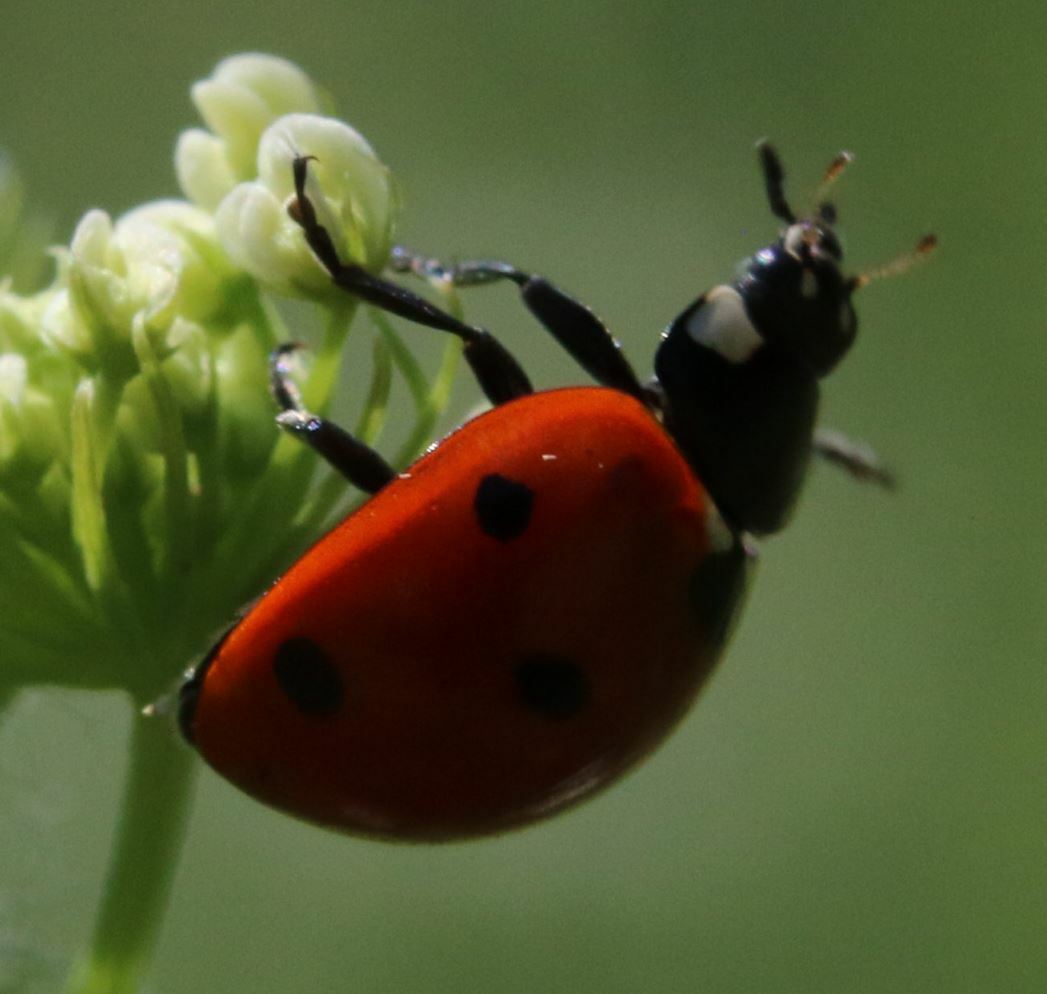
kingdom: Animalia
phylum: Arthropoda
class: Insecta
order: Coleoptera
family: Coccinellidae
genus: Coccinella
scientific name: Coccinella septempunctata
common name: Sevenspotted lady beetle
